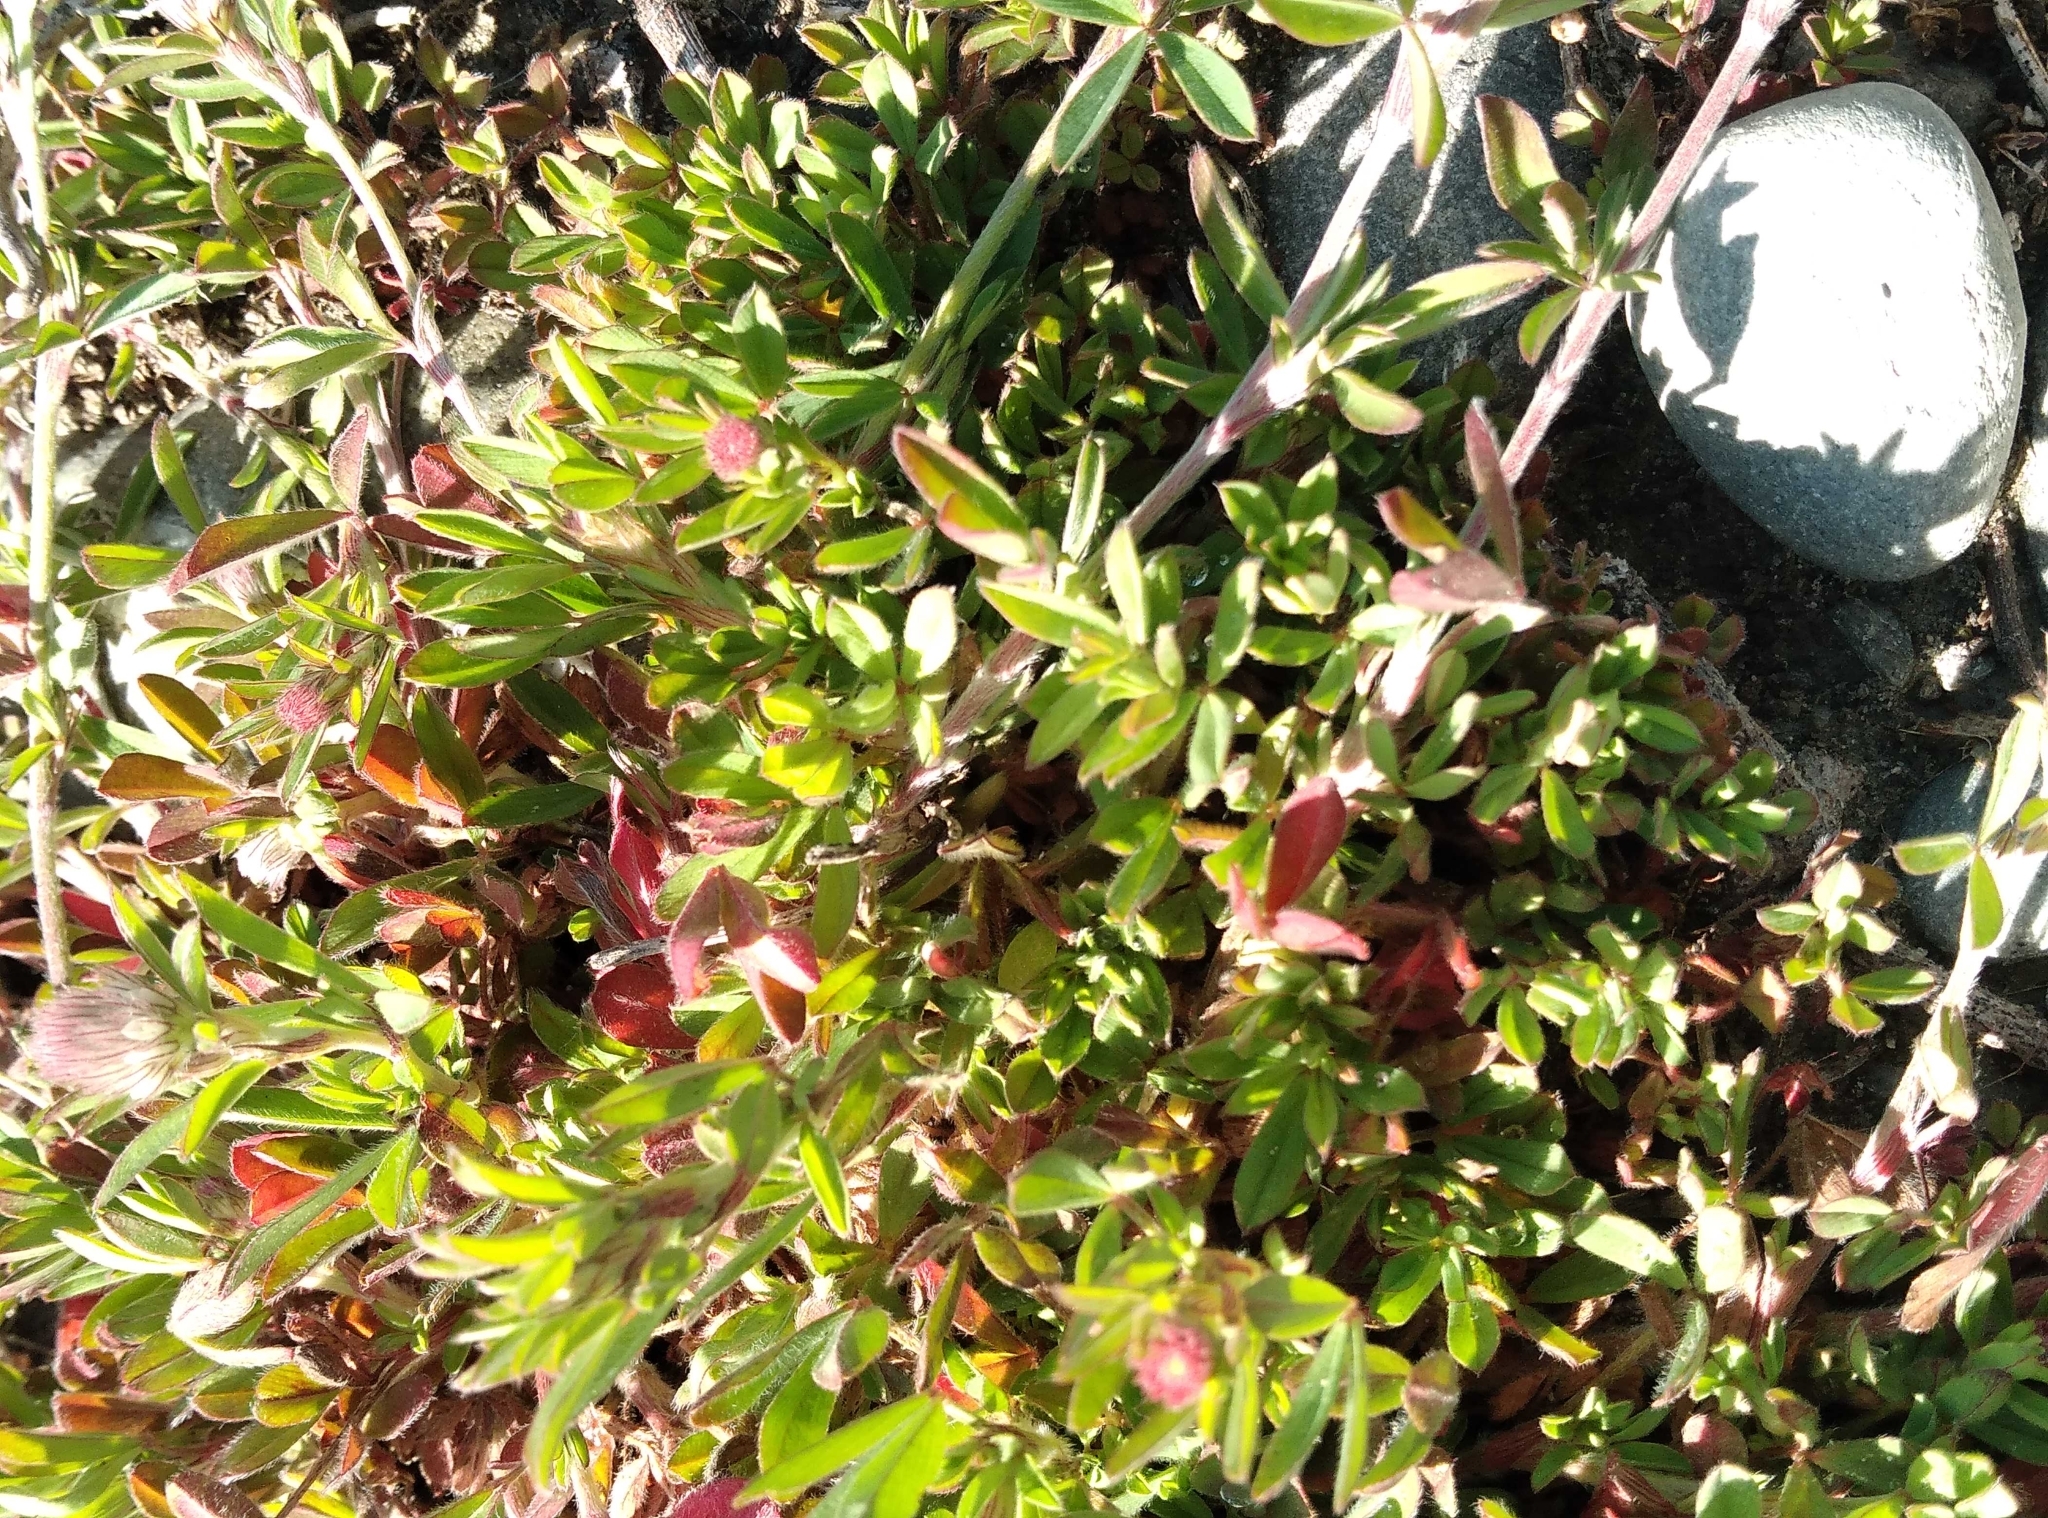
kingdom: Plantae
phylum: Tracheophyta
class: Magnoliopsida
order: Fabales
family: Fabaceae
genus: Trifolium
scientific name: Trifolium arvense
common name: Hare's-foot clover
